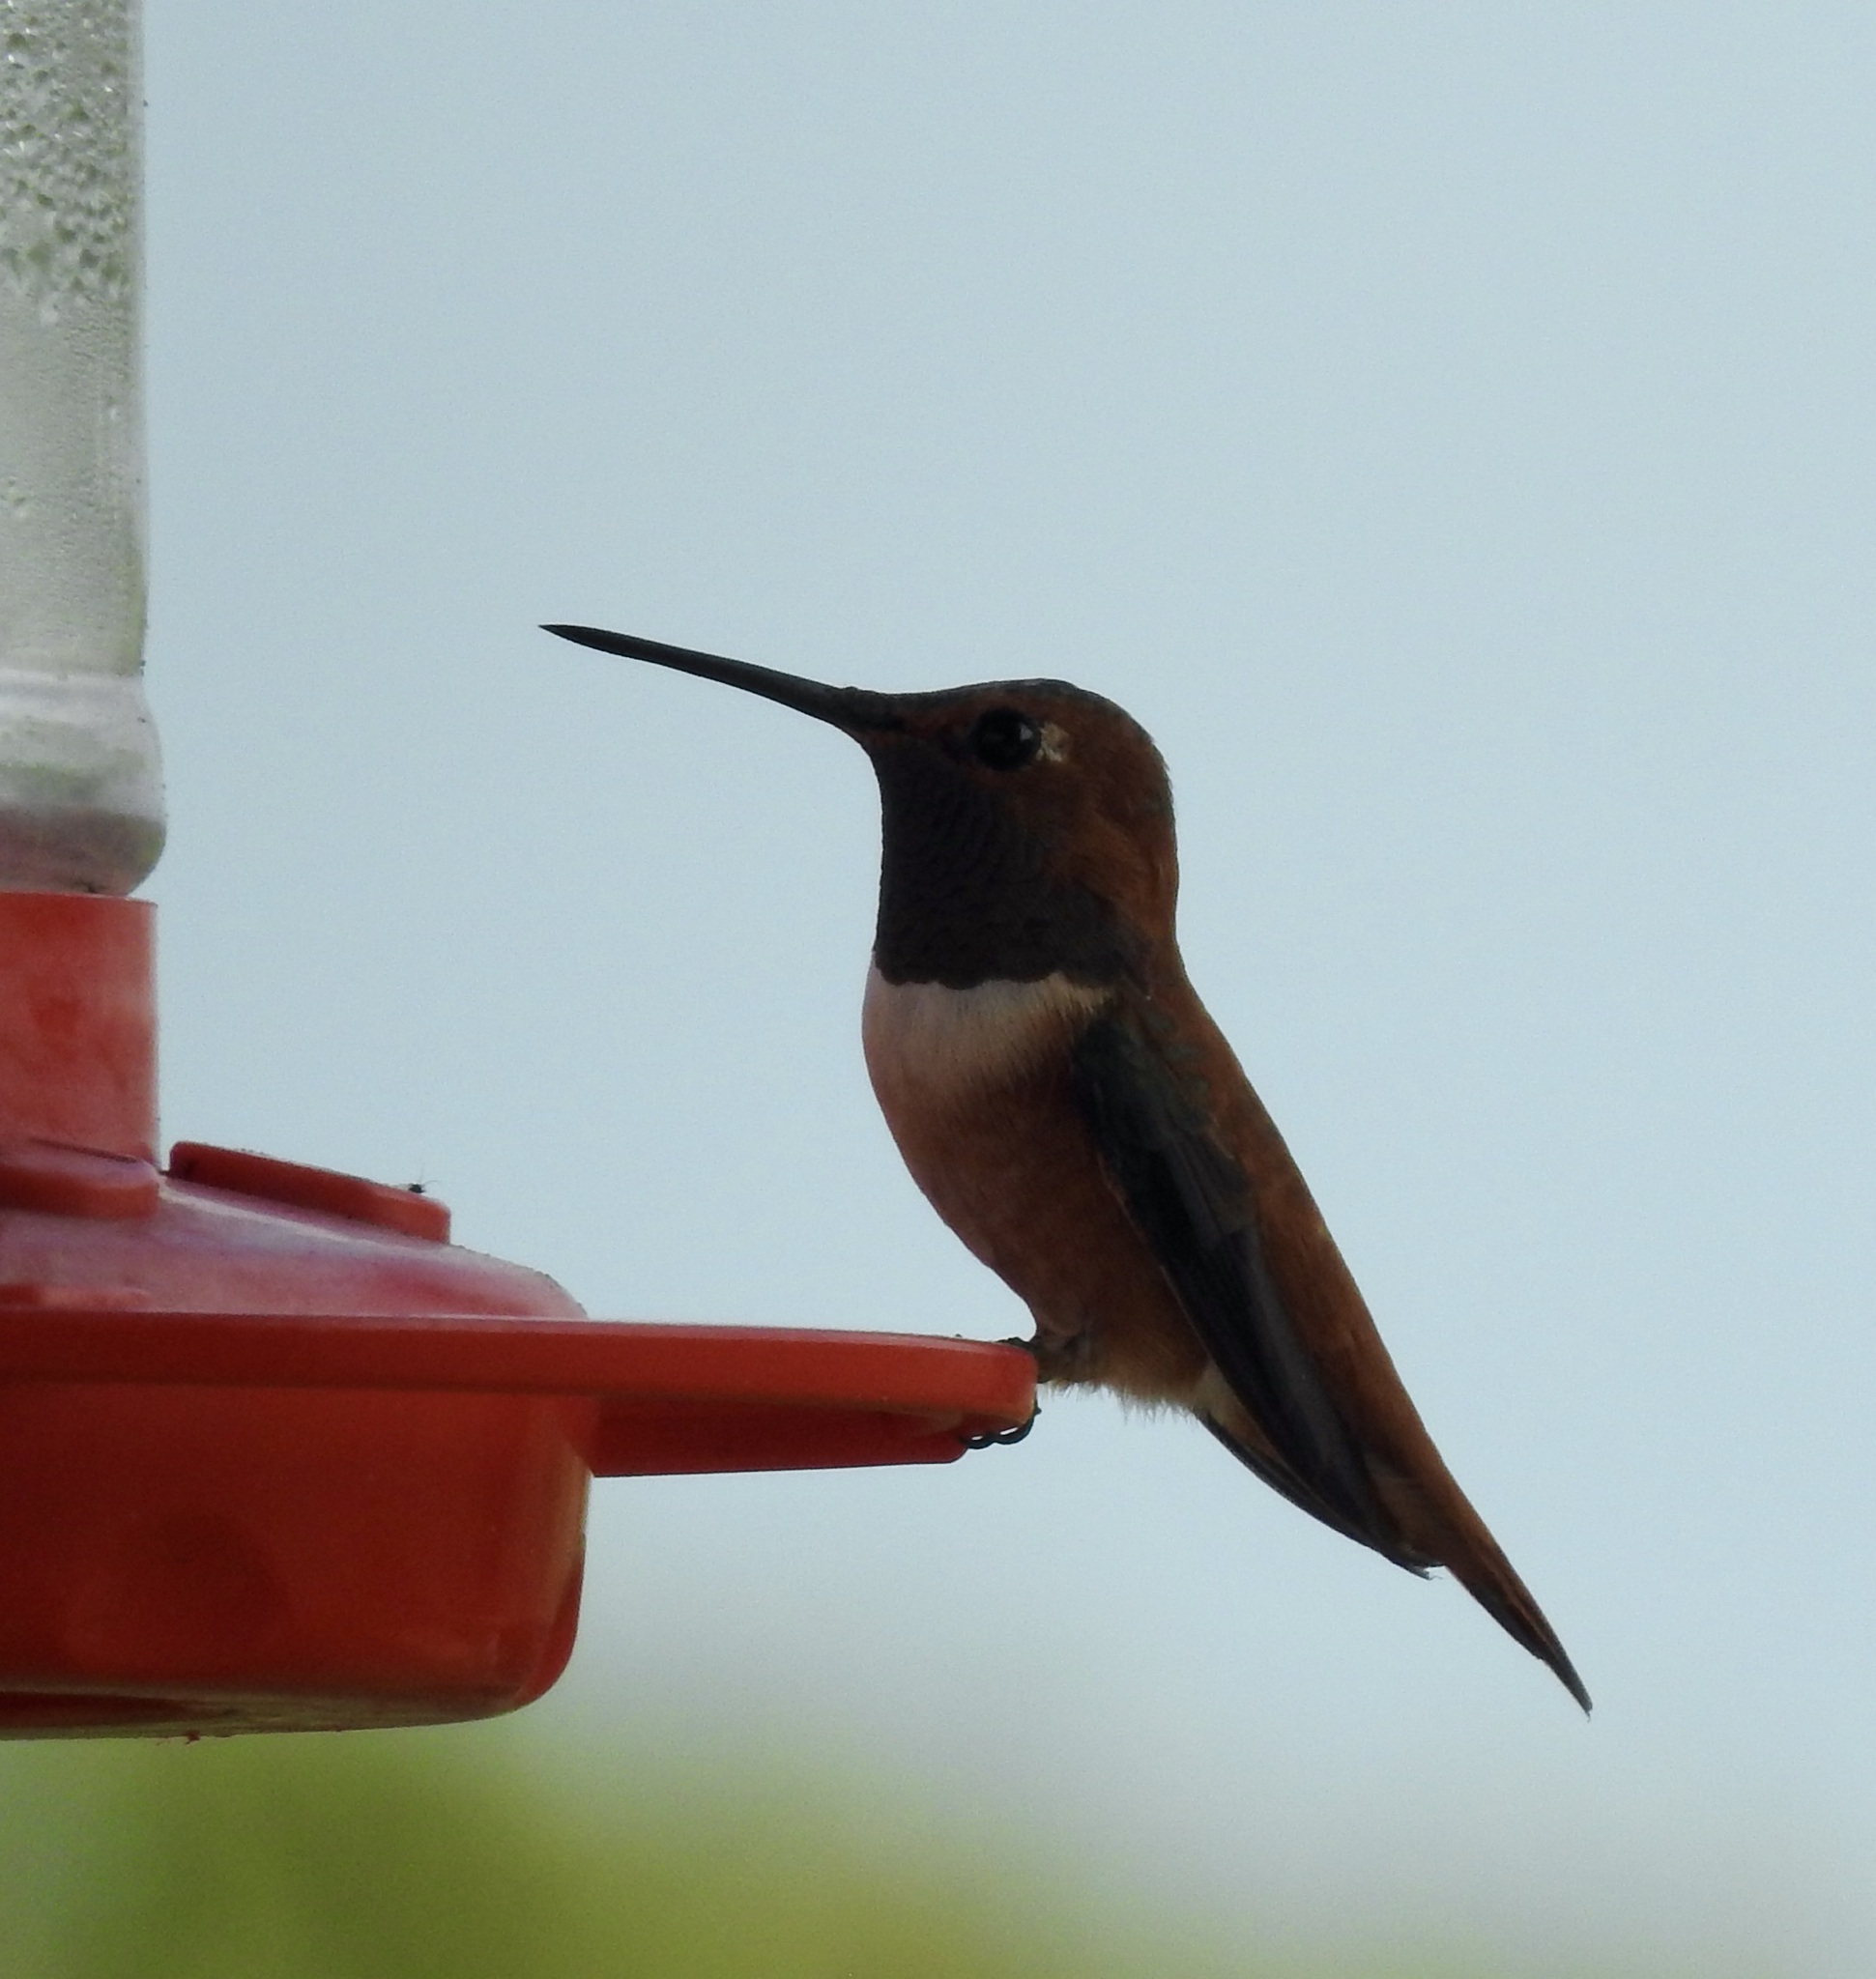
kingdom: Animalia
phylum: Chordata
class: Aves
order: Apodiformes
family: Trochilidae
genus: Selasphorus
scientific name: Selasphorus rufus
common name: Rufous hummingbird
